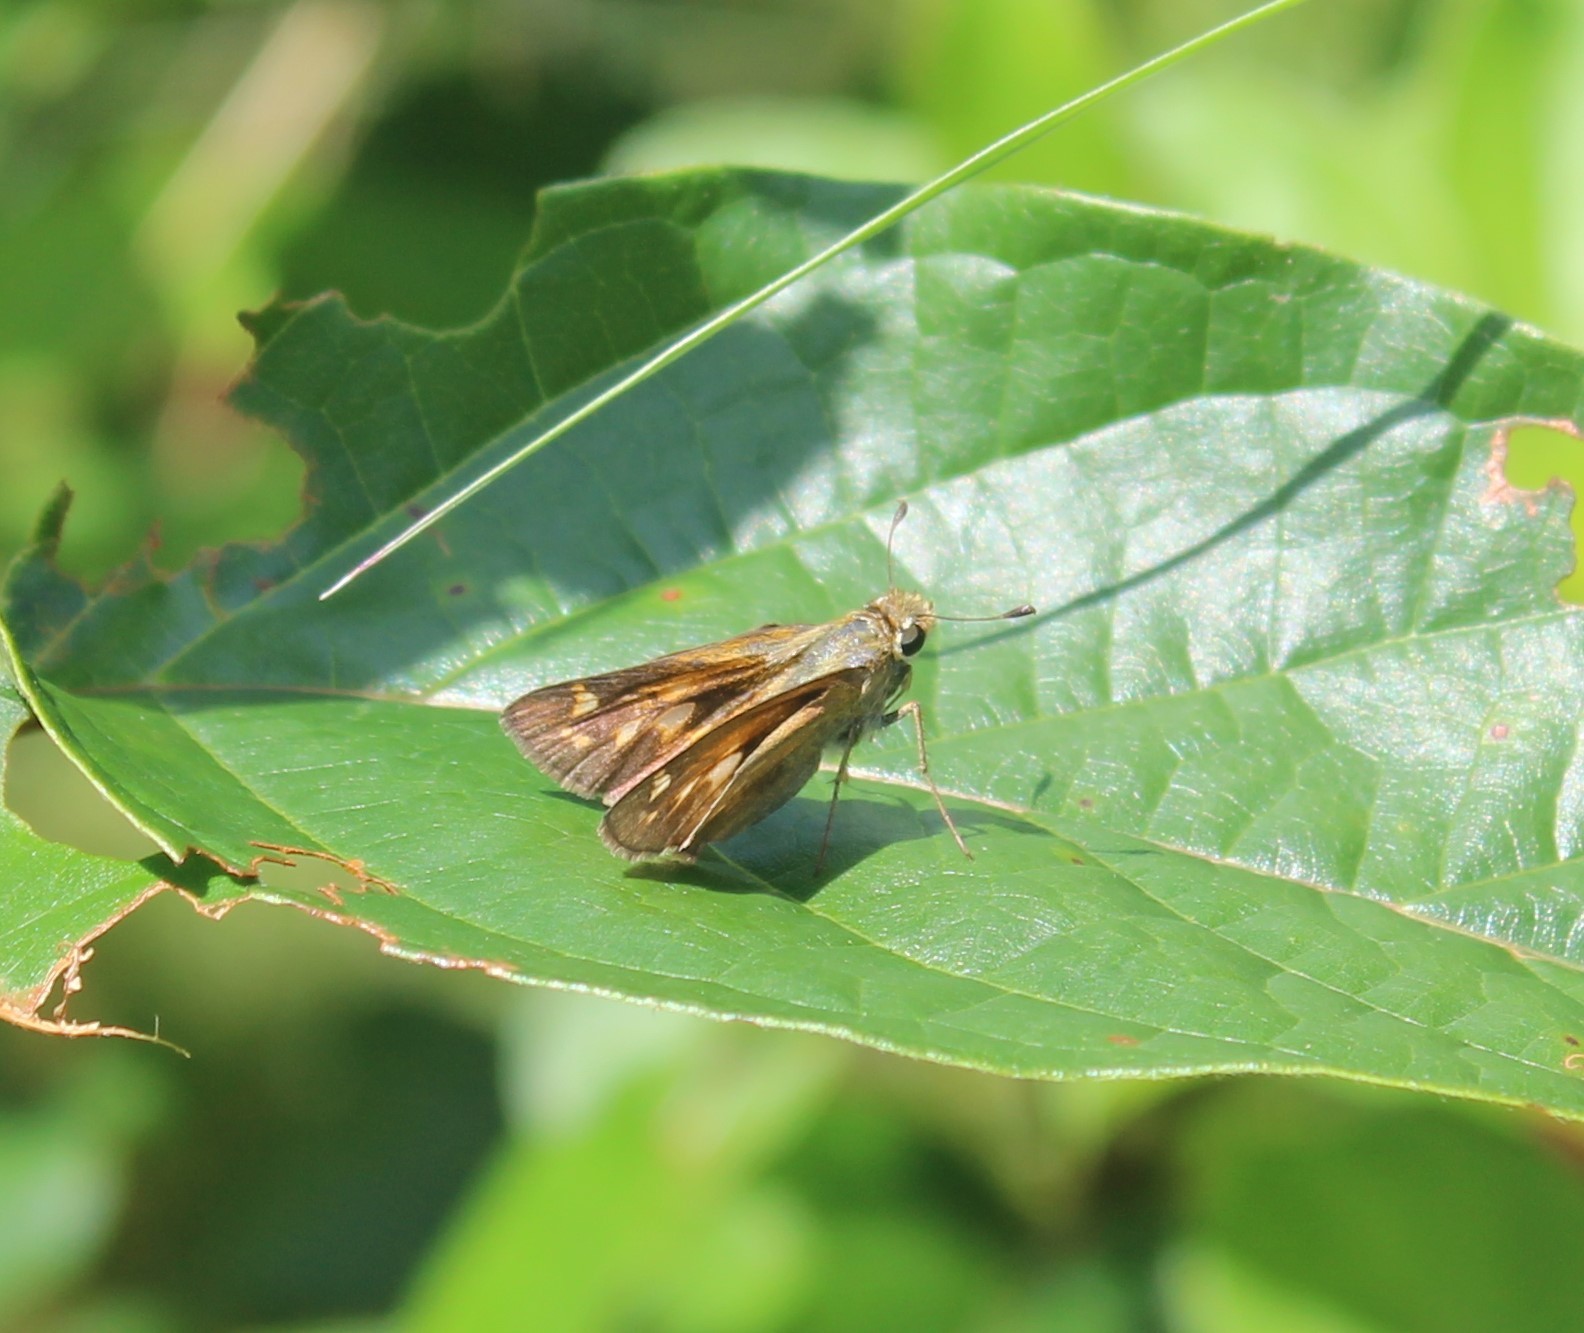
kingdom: Animalia
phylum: Arthropoda
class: Insecta
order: Lepidoptera
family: Hesperiidae
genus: Atalopedes
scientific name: Atalopedes
